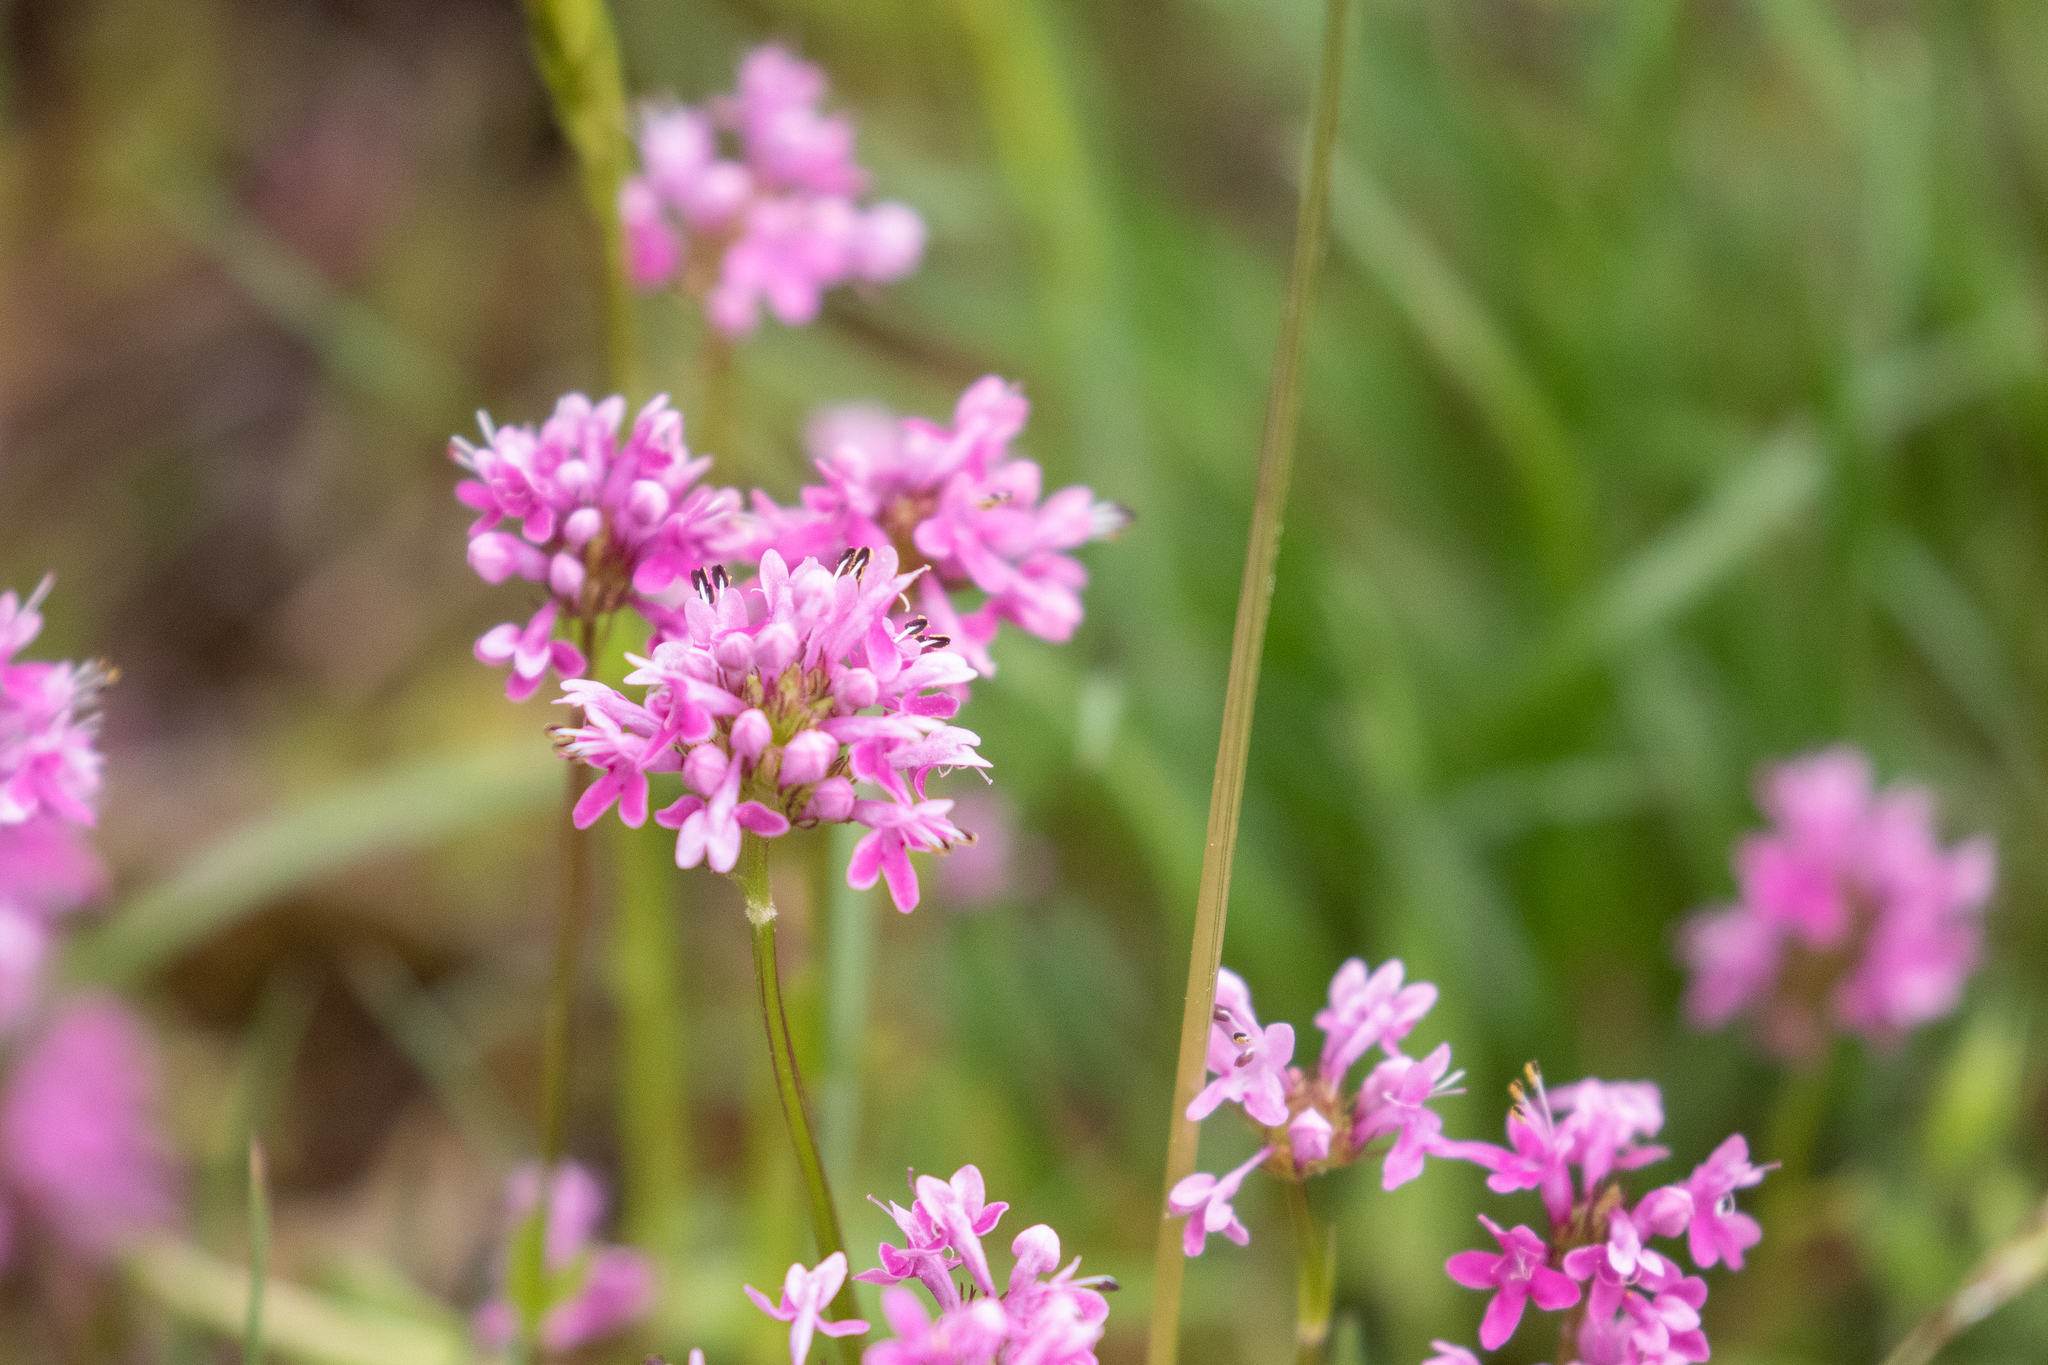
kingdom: Plantae
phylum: Tracheophyta
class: Magnoliopsida
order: Dipsacales
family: Caprifoliaceae
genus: Plectritis
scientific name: Plectritis congesta
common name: Pink plectritis
